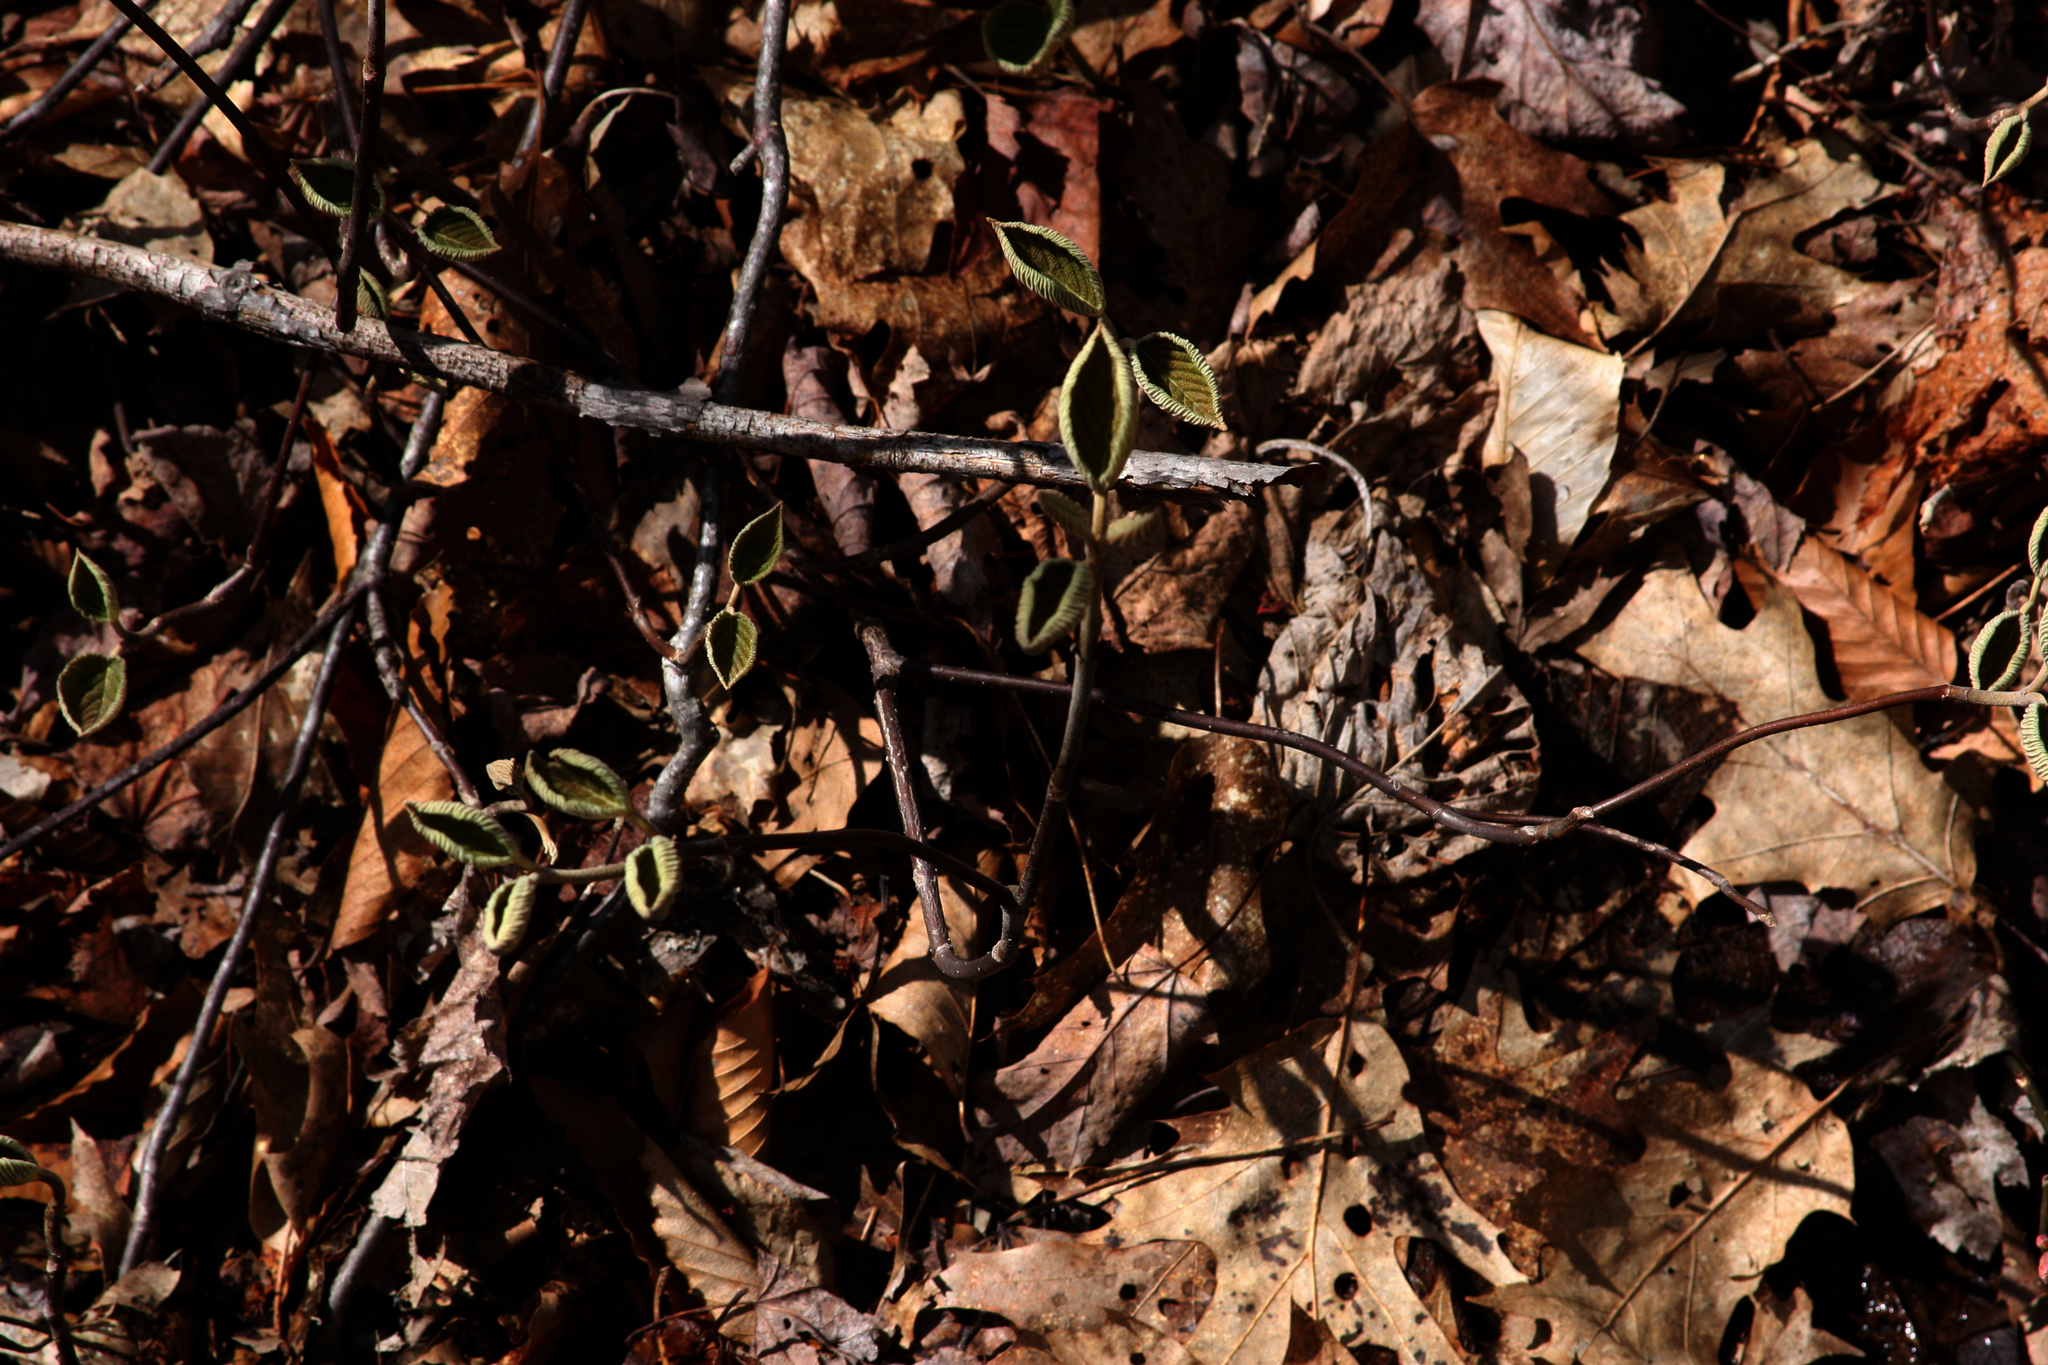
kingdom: Plantae
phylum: Tracheophyta
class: Magnoliopsida
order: Dipsacales
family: Viburnaceae
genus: Viburnum
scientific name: Viburnum lantanoides
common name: Hobblebush
